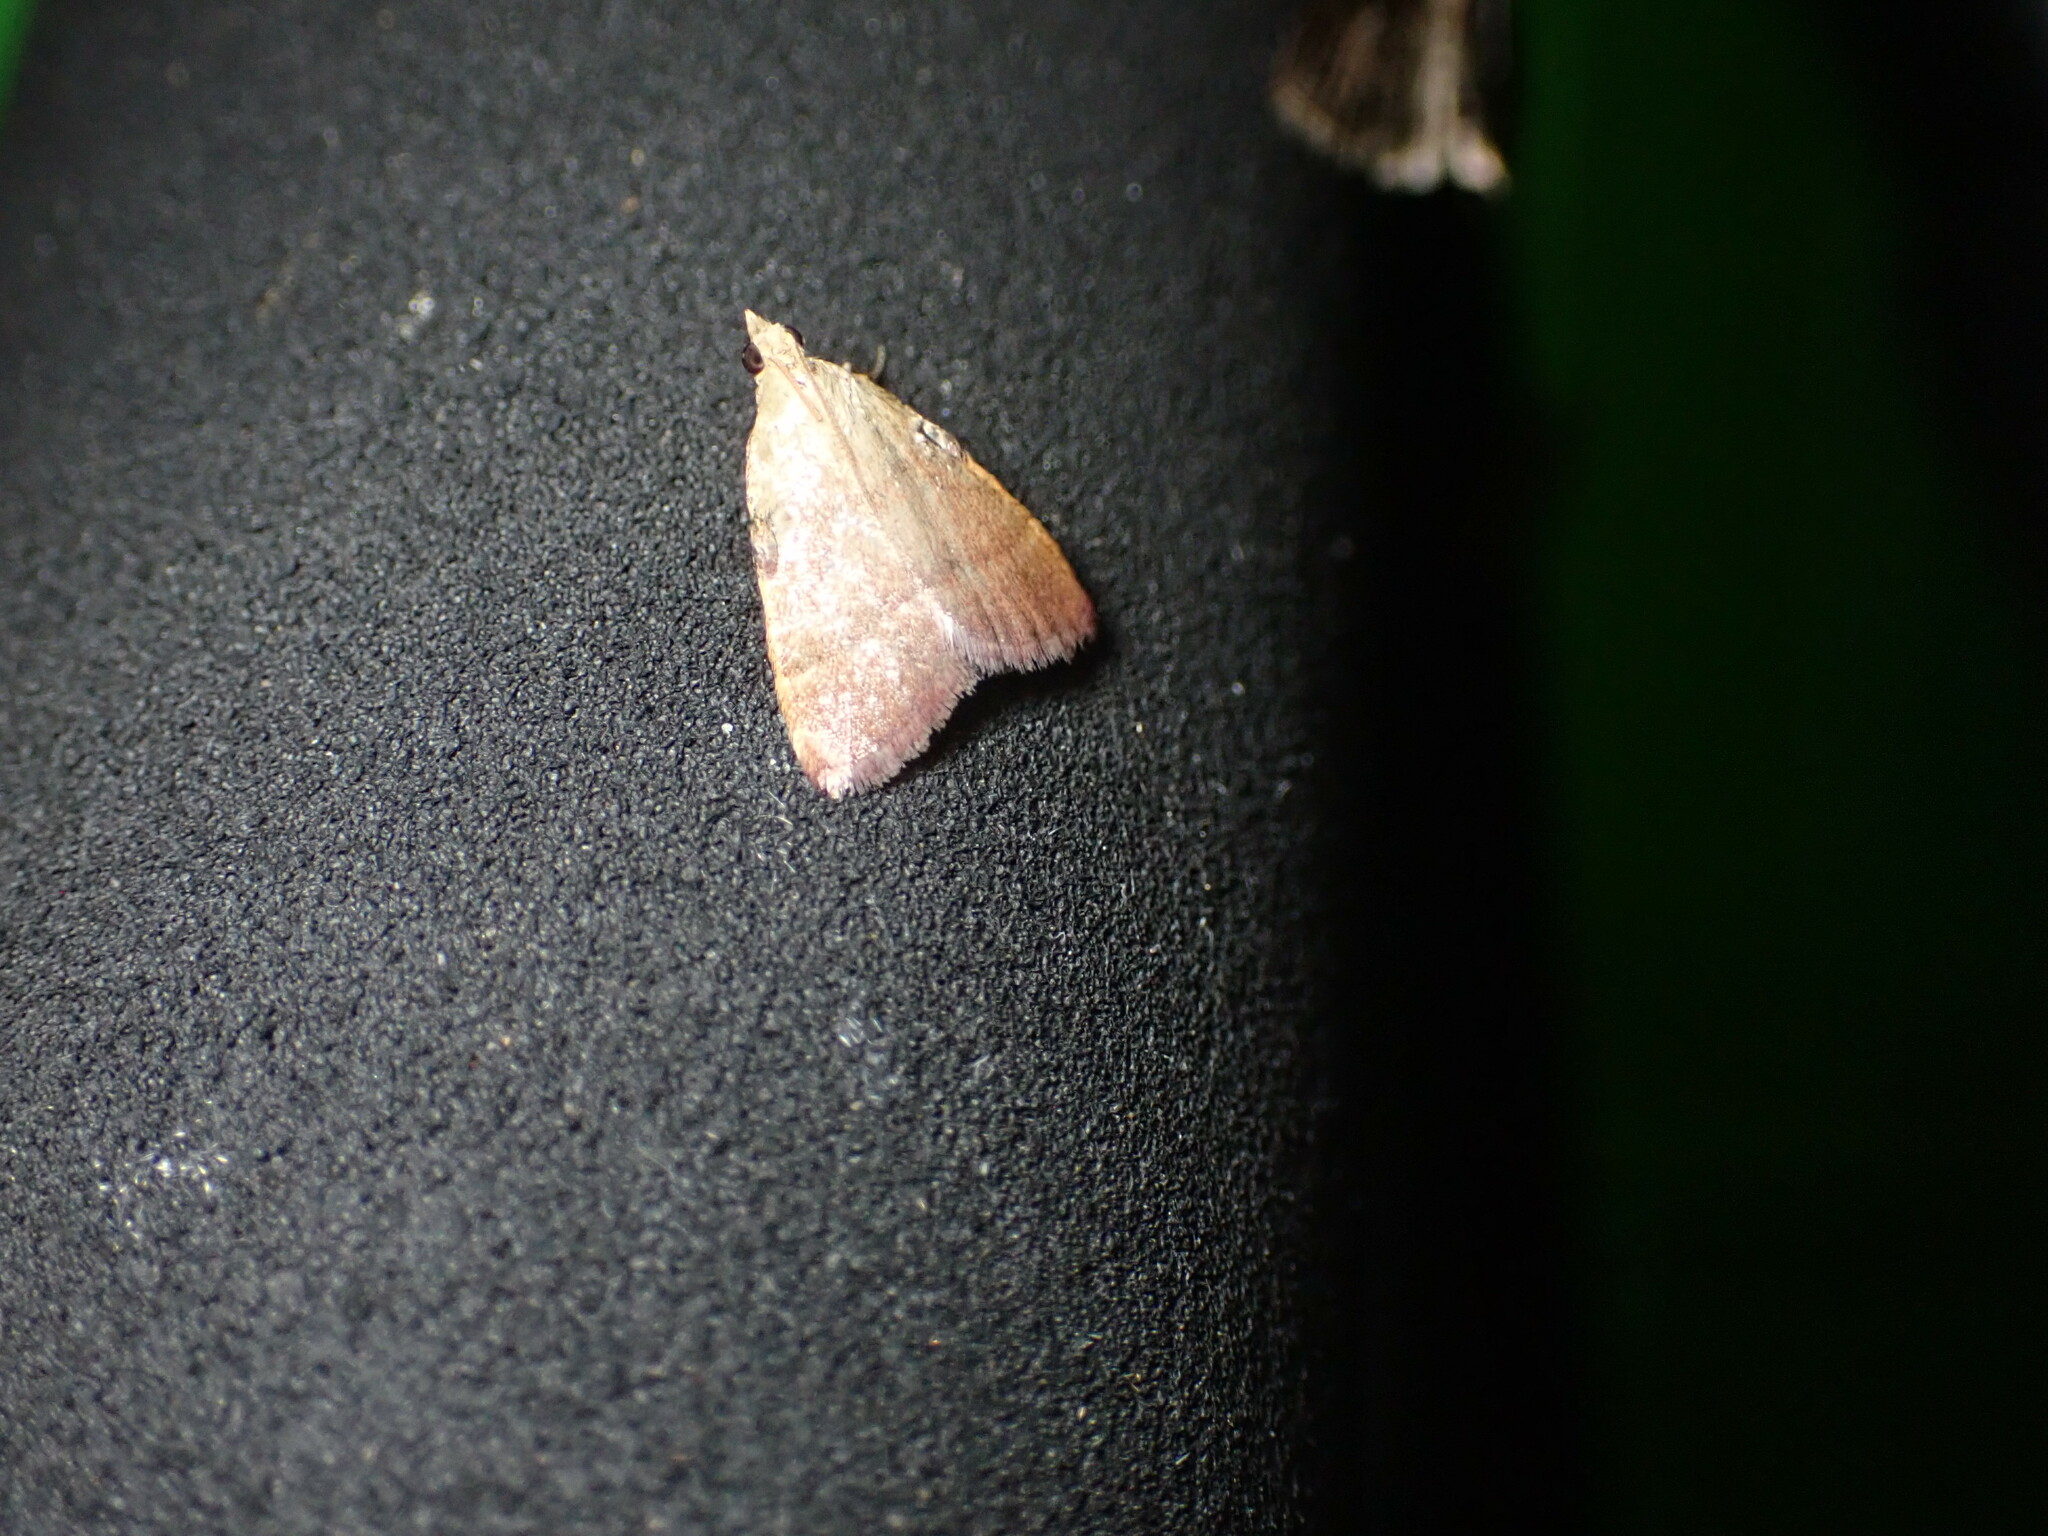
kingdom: Animalia
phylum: Arthropoda
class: Insecta
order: Lepidoptera
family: Pyralidae
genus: Condylolomia
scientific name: Condylolomia participialis
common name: Drab condylolomia moth
